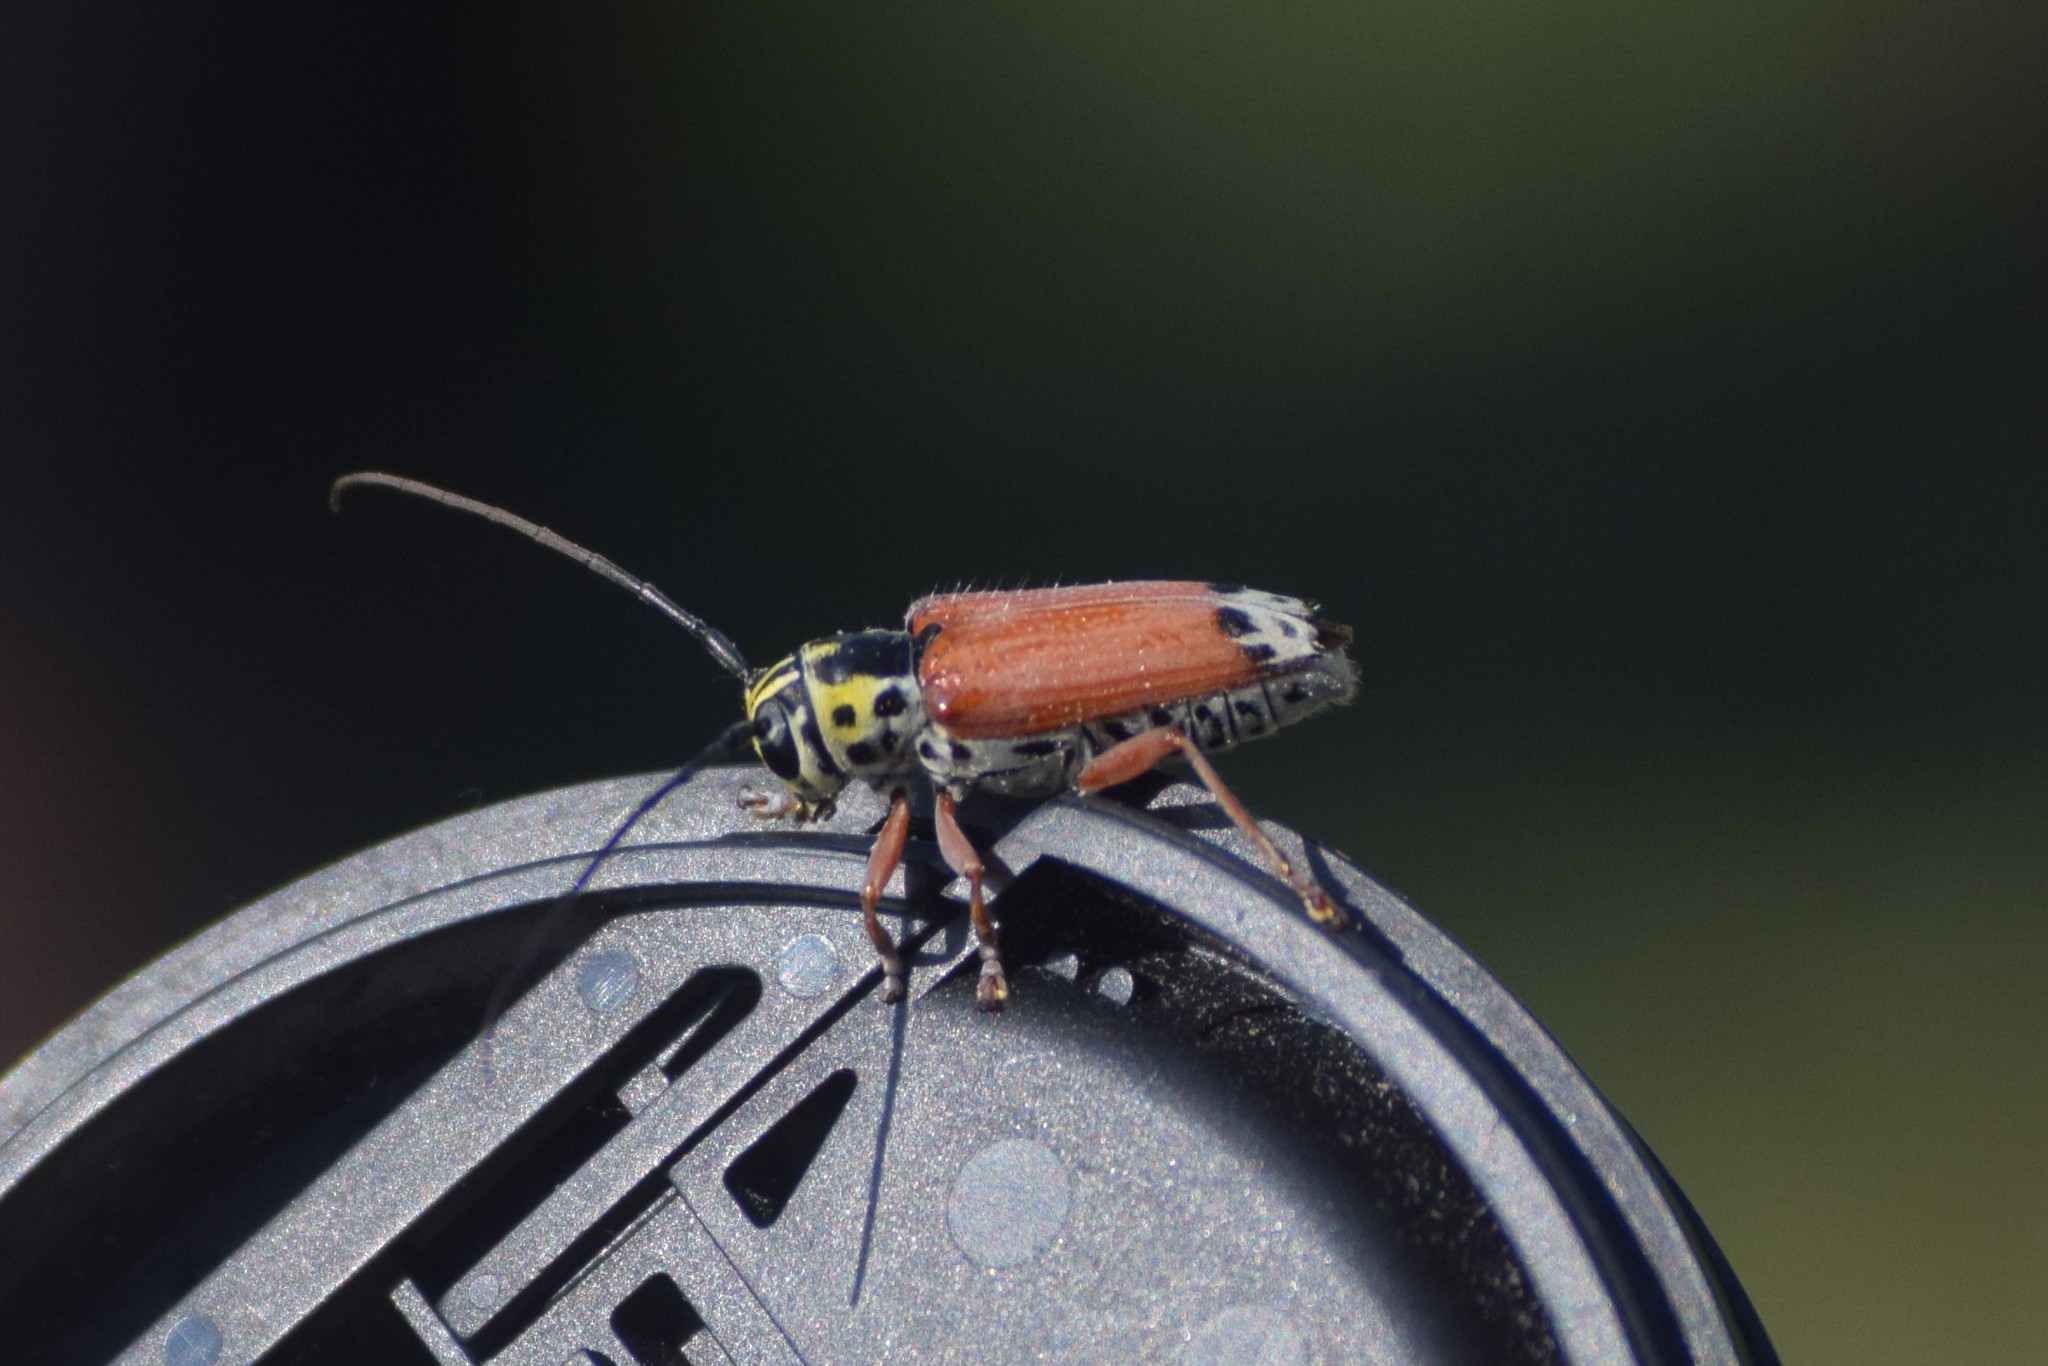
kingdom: Animalia
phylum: Arthropoda
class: Insecta
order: Coleoptera
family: Cerambycidae
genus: Glenea
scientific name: Glenea cantor
